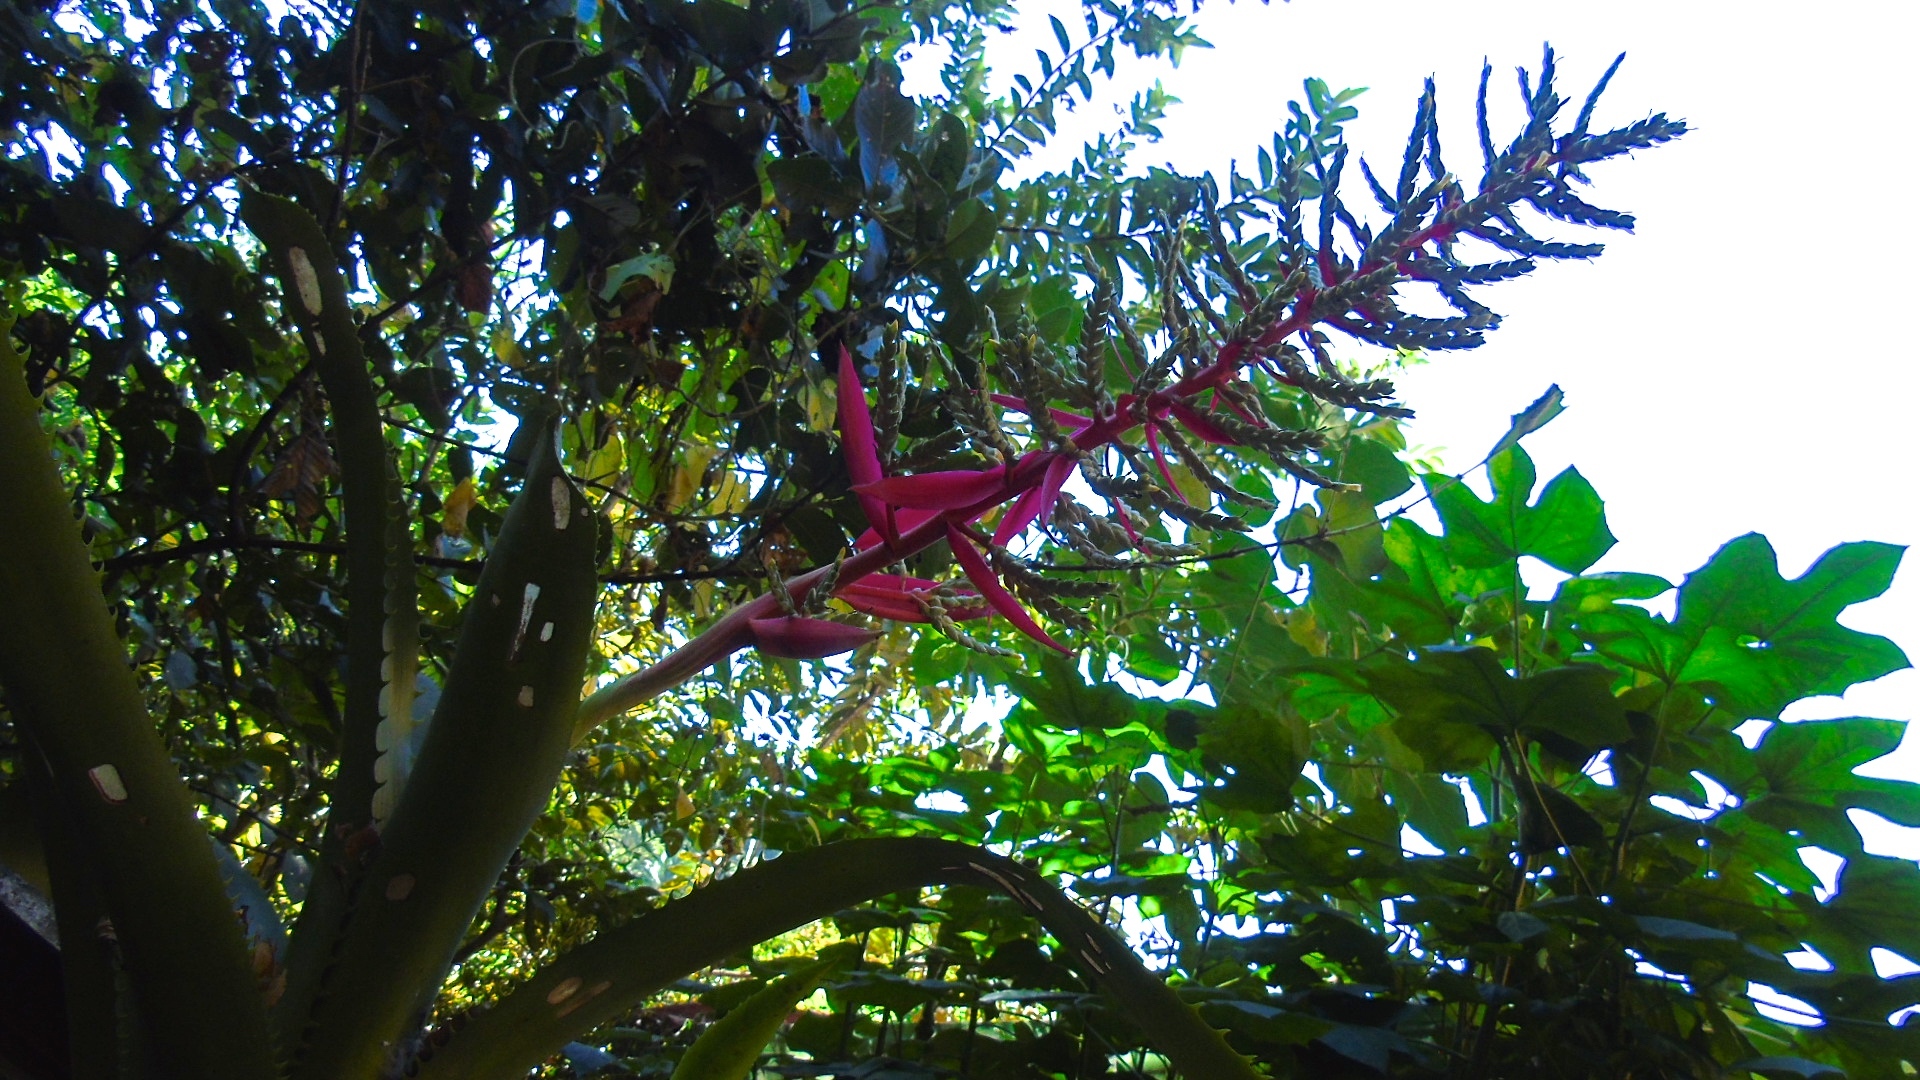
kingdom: Plantae
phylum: Tracheophyta
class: Liliopsida
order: Poales
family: Bromeliaceae
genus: Aechmea
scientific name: Aechmea bracteata
